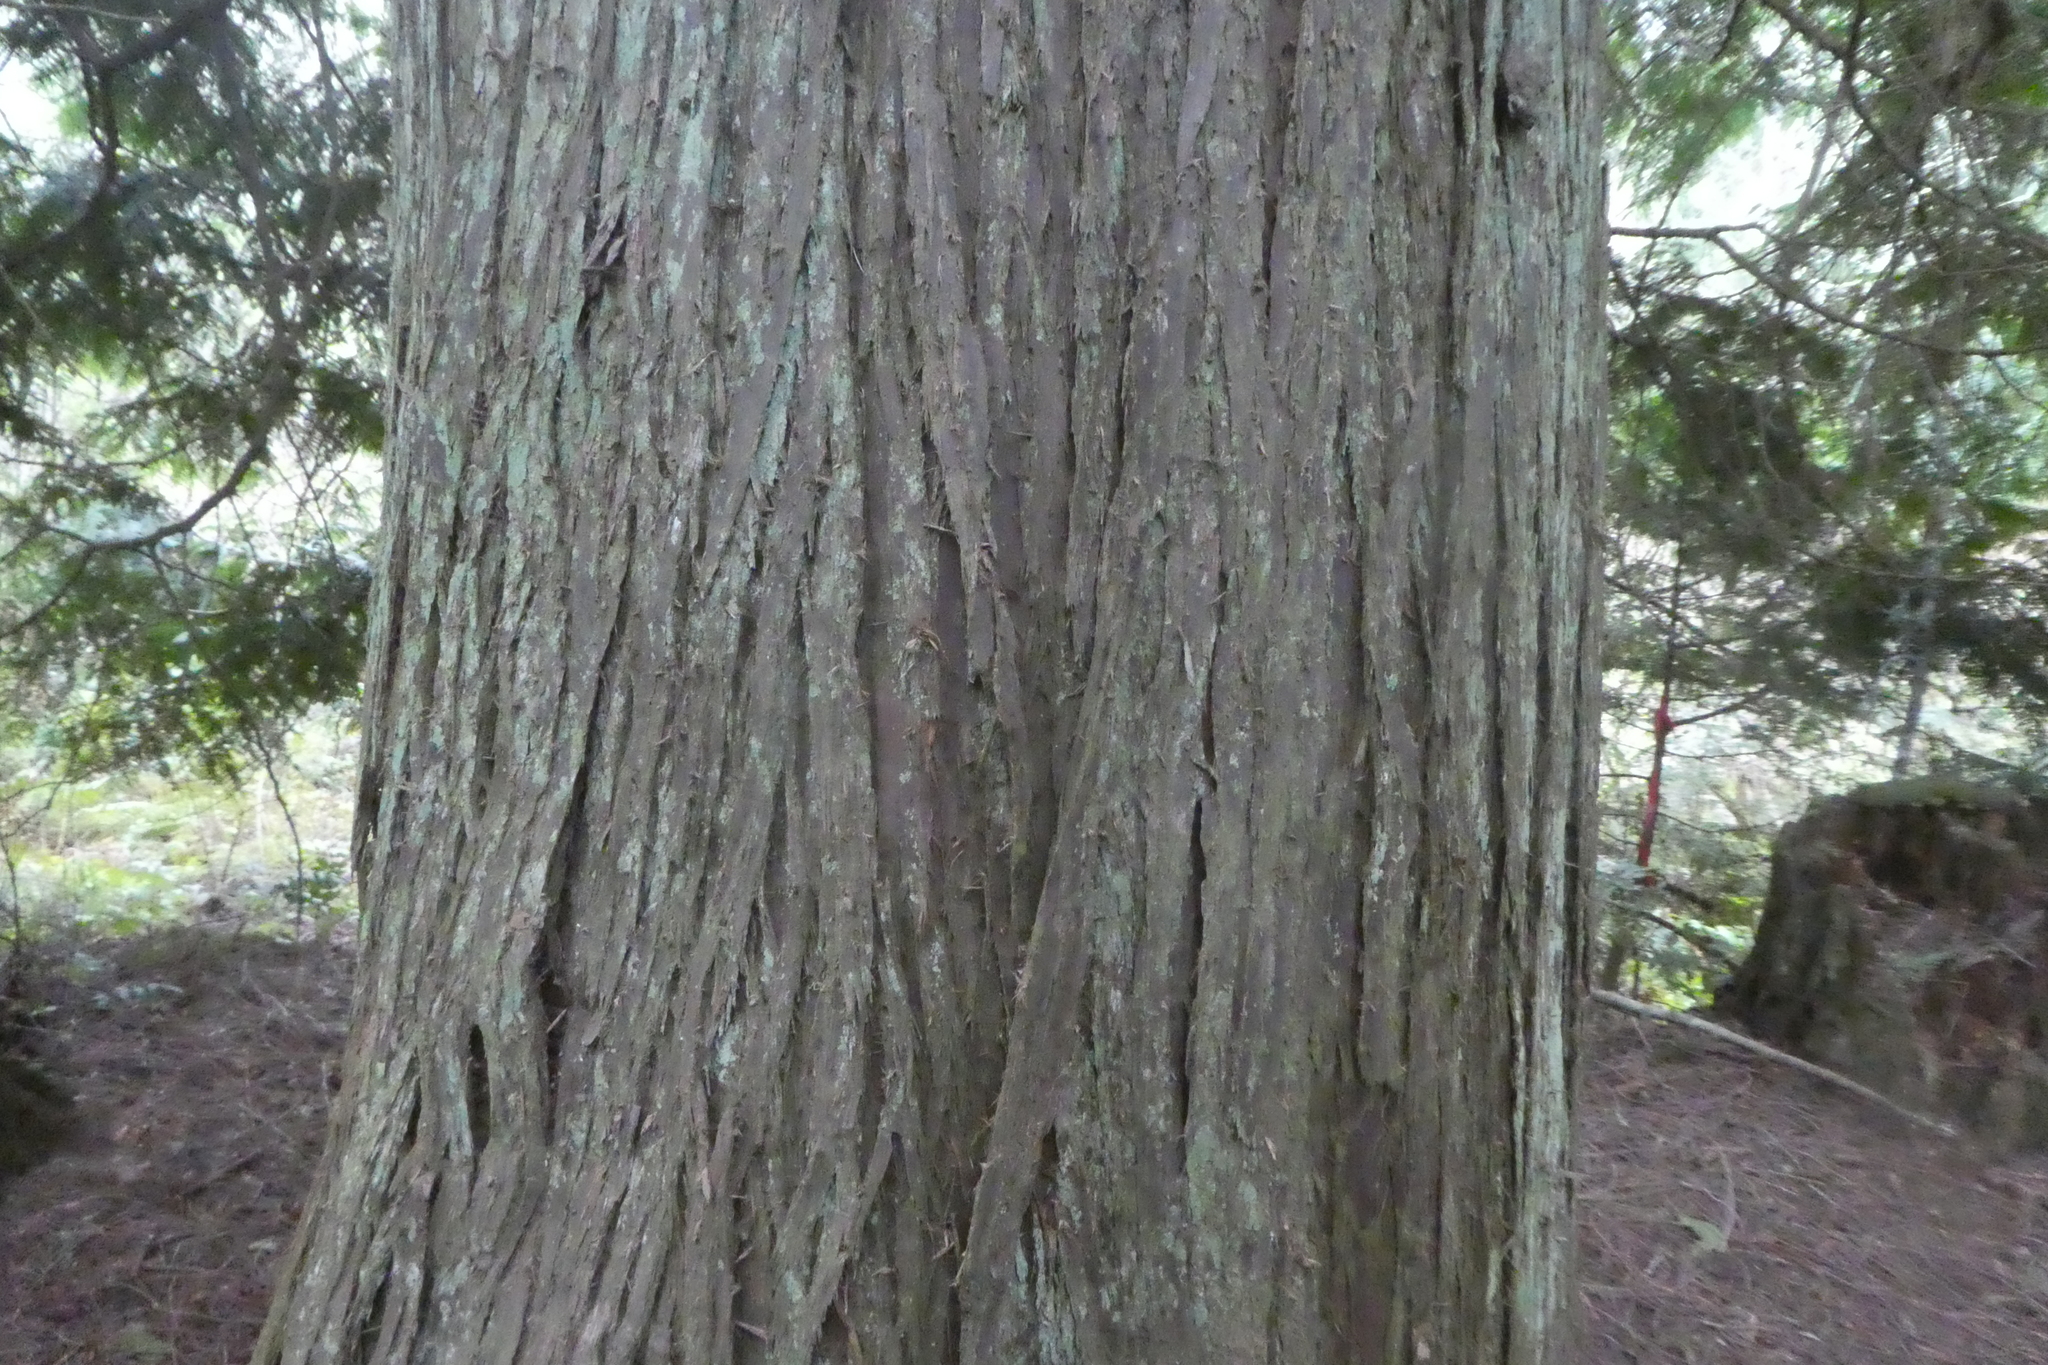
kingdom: Plantae
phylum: Tracheophyta
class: Pinopsida
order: Pinales
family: Cupressaceae
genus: Thuja
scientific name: Thuja plicata
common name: Western red-cedar
